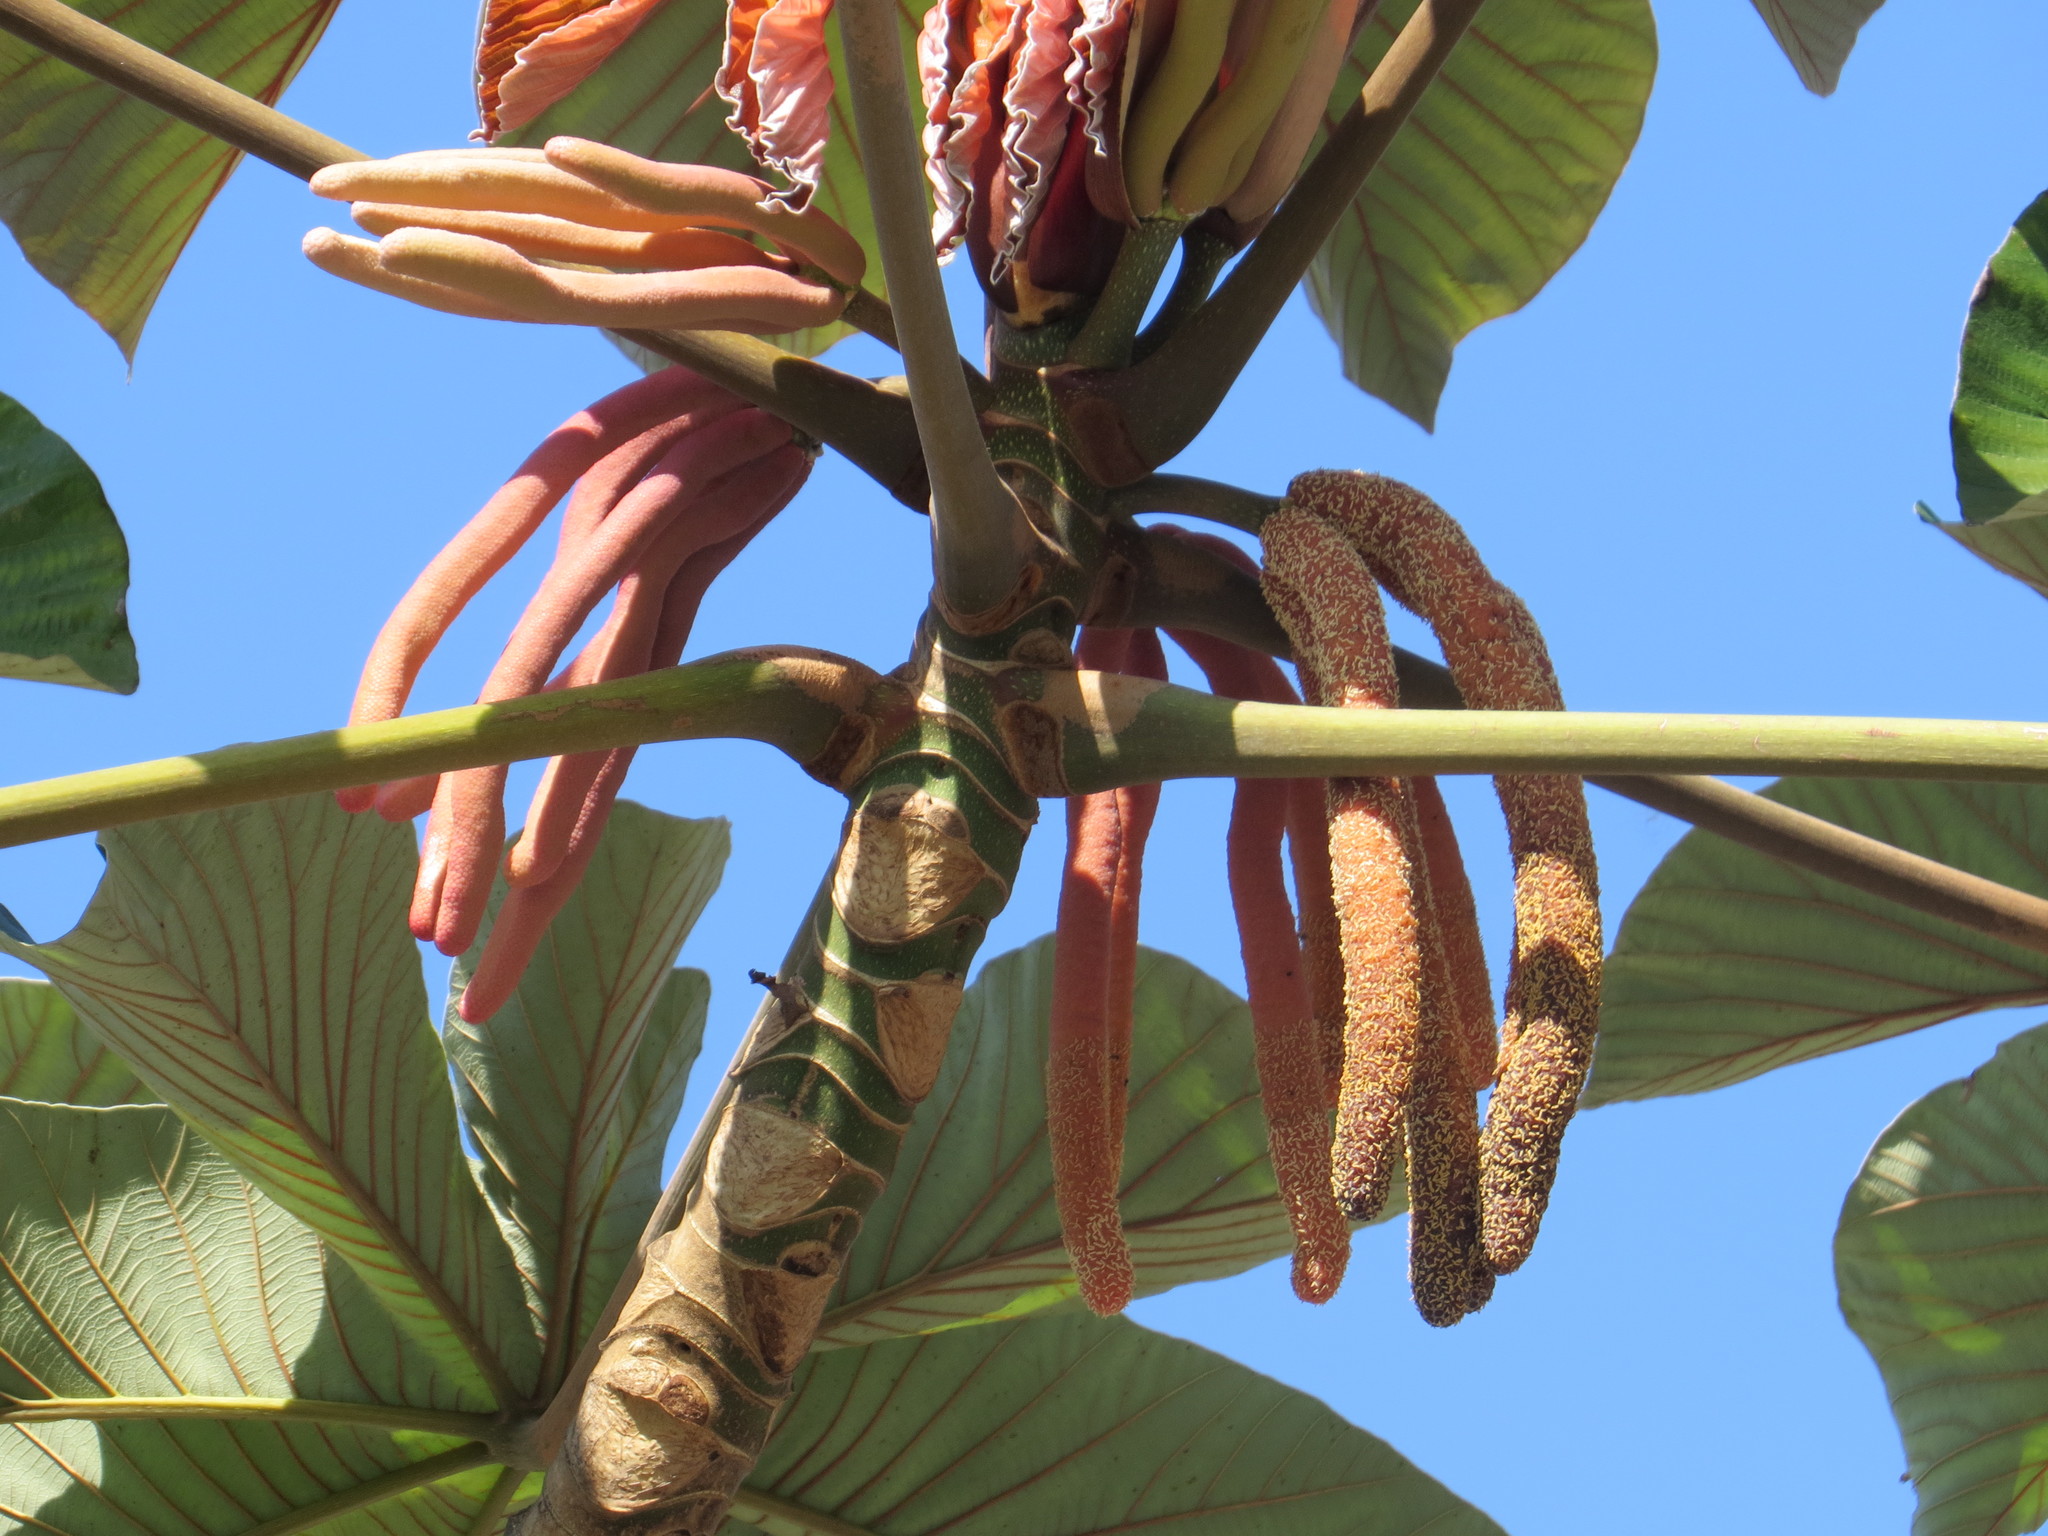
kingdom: Plantae
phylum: Tracheophyta
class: Magnoliopsida
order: Rosales
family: Urticaceae
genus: Cecropia
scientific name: Cecropia glaziovii
